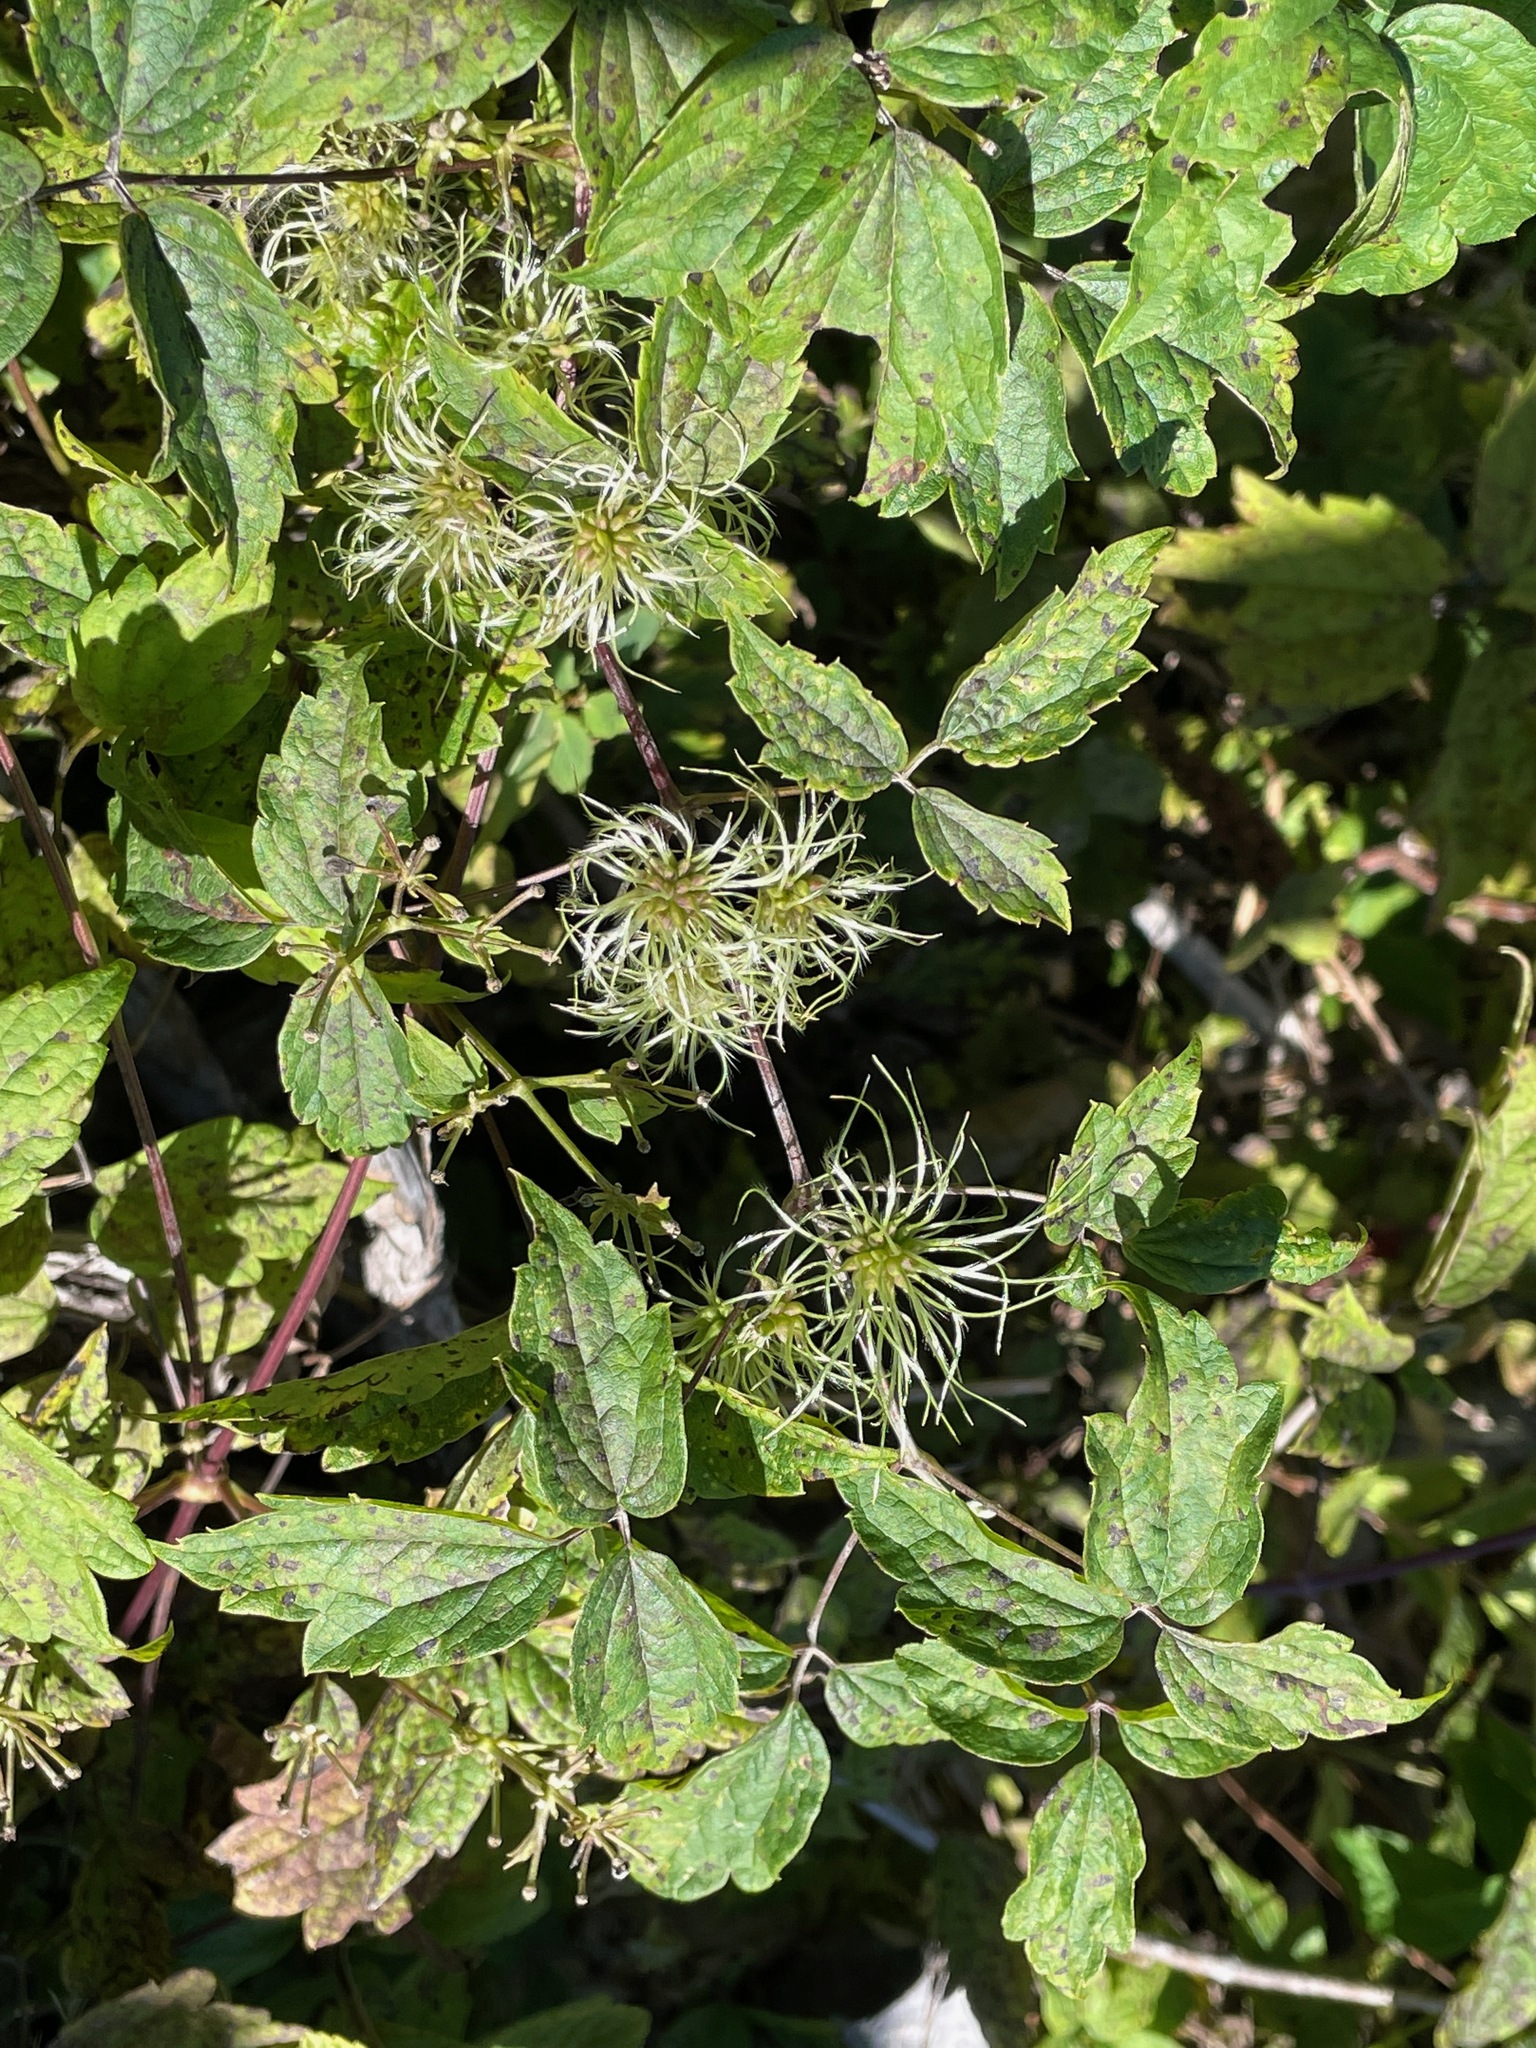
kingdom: Plantae
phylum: Tracheophyta
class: Magnoliopsida
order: Ranunculales
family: Ranunculaceae
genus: Clematis
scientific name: Clematis virginiana
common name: Virgin's-bower
